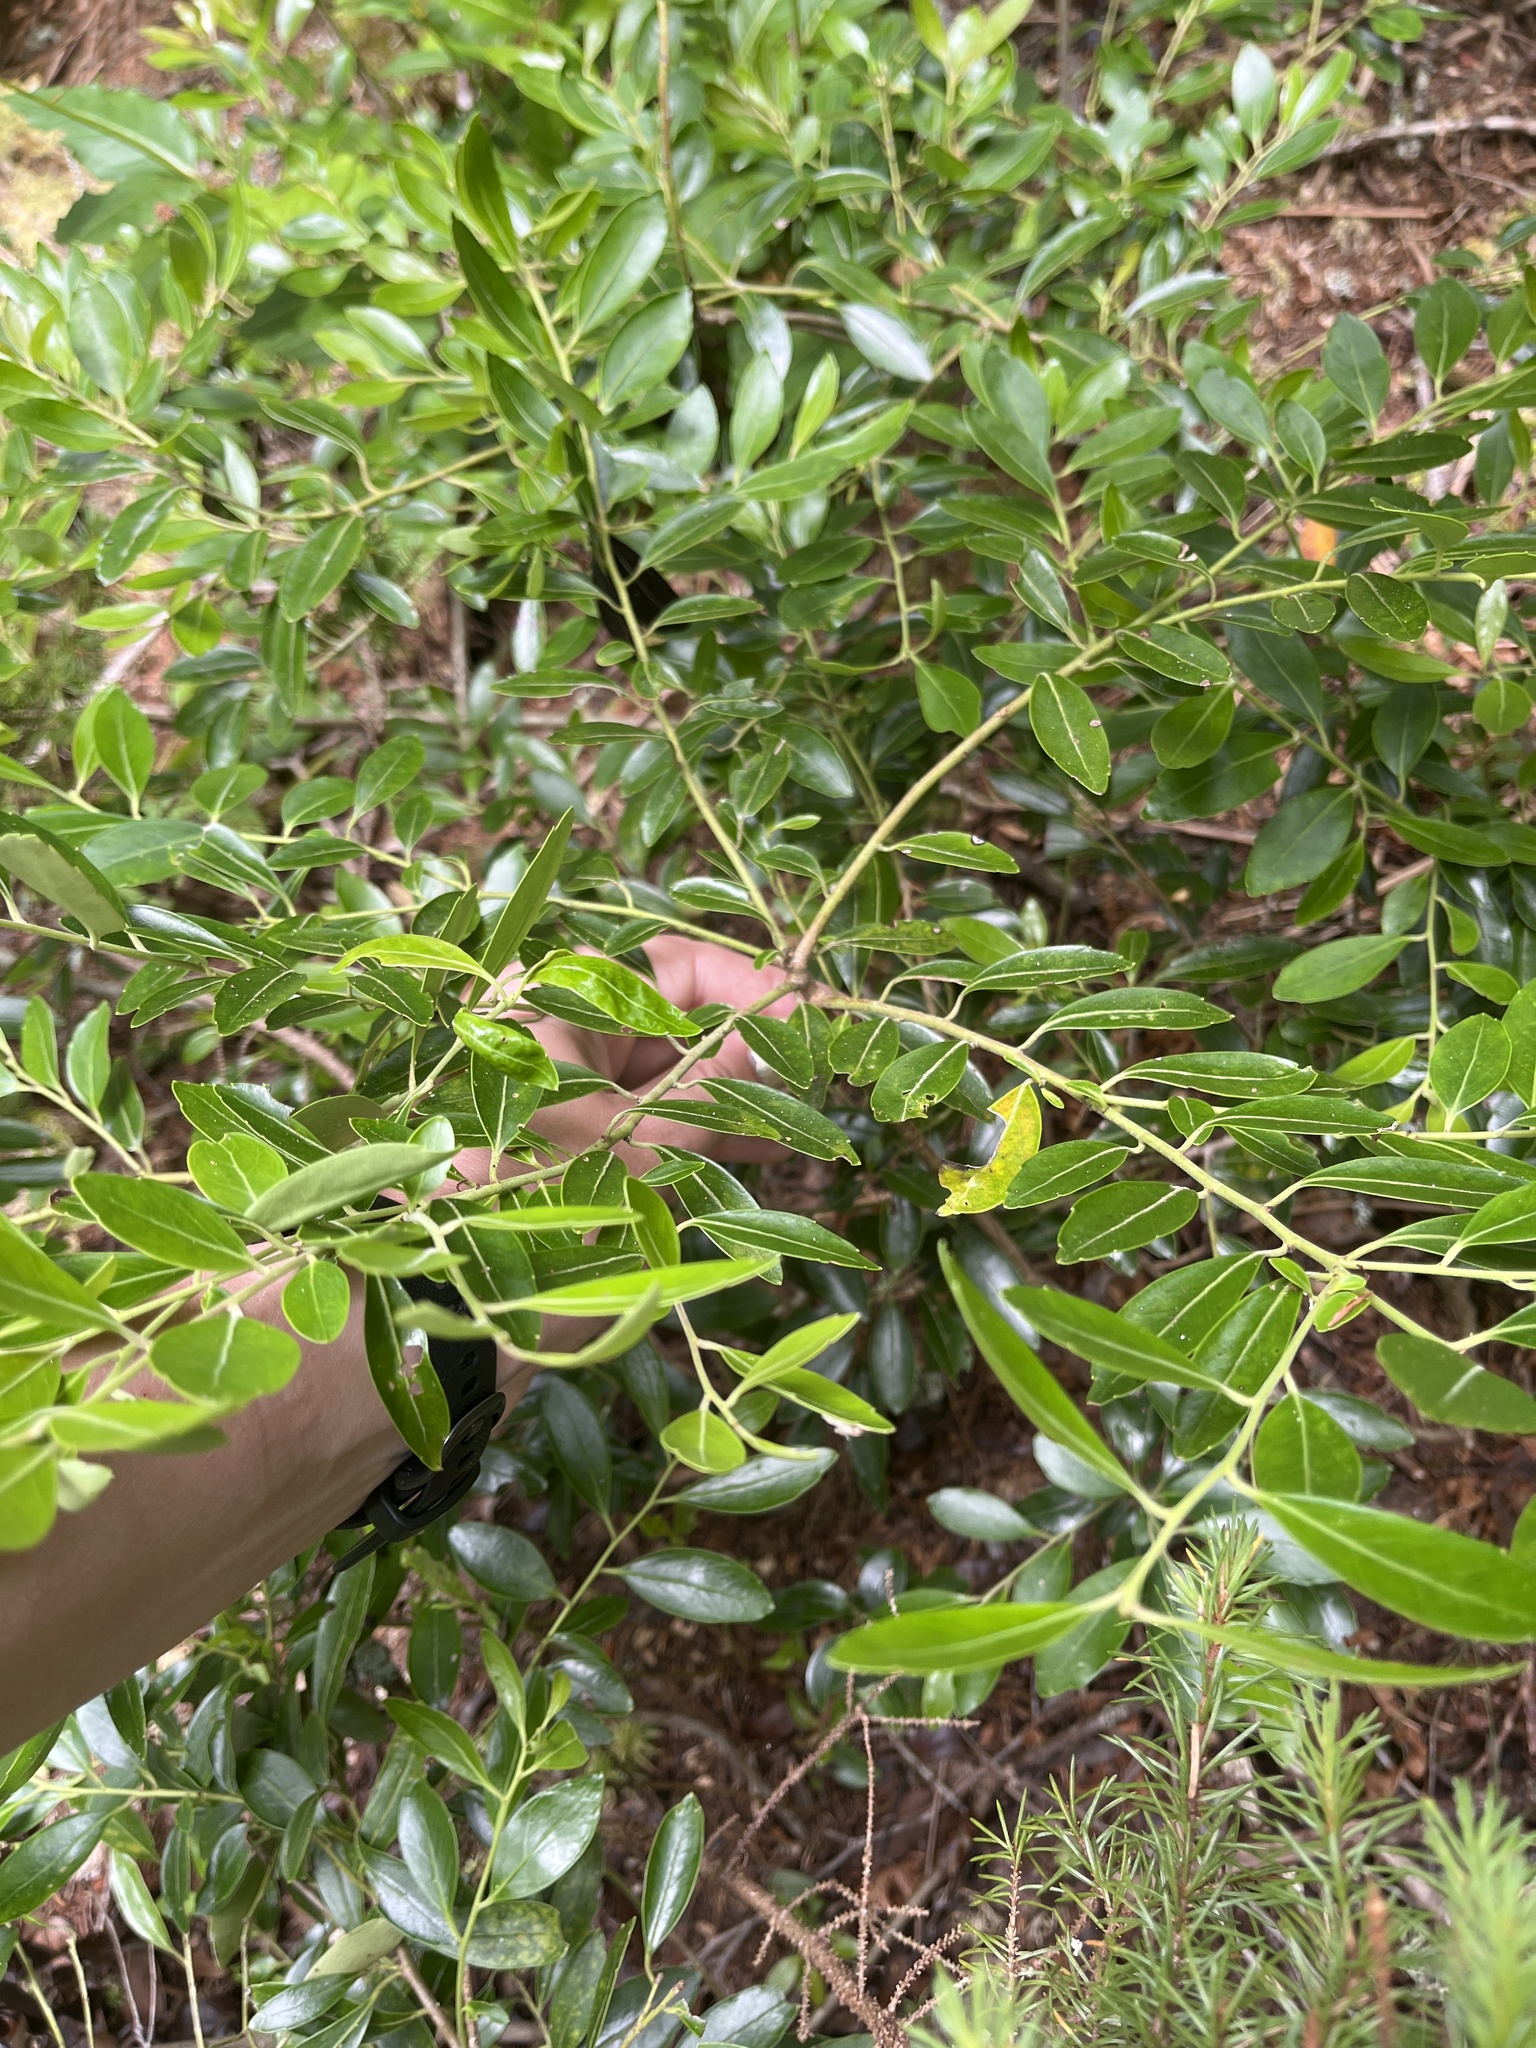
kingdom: Plantae
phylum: Tracheophyta
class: Magnoliopsida
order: Aquifoliales
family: Aquifoliaceae
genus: Ilex
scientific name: Ilex glabra
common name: Bitter gallberry
